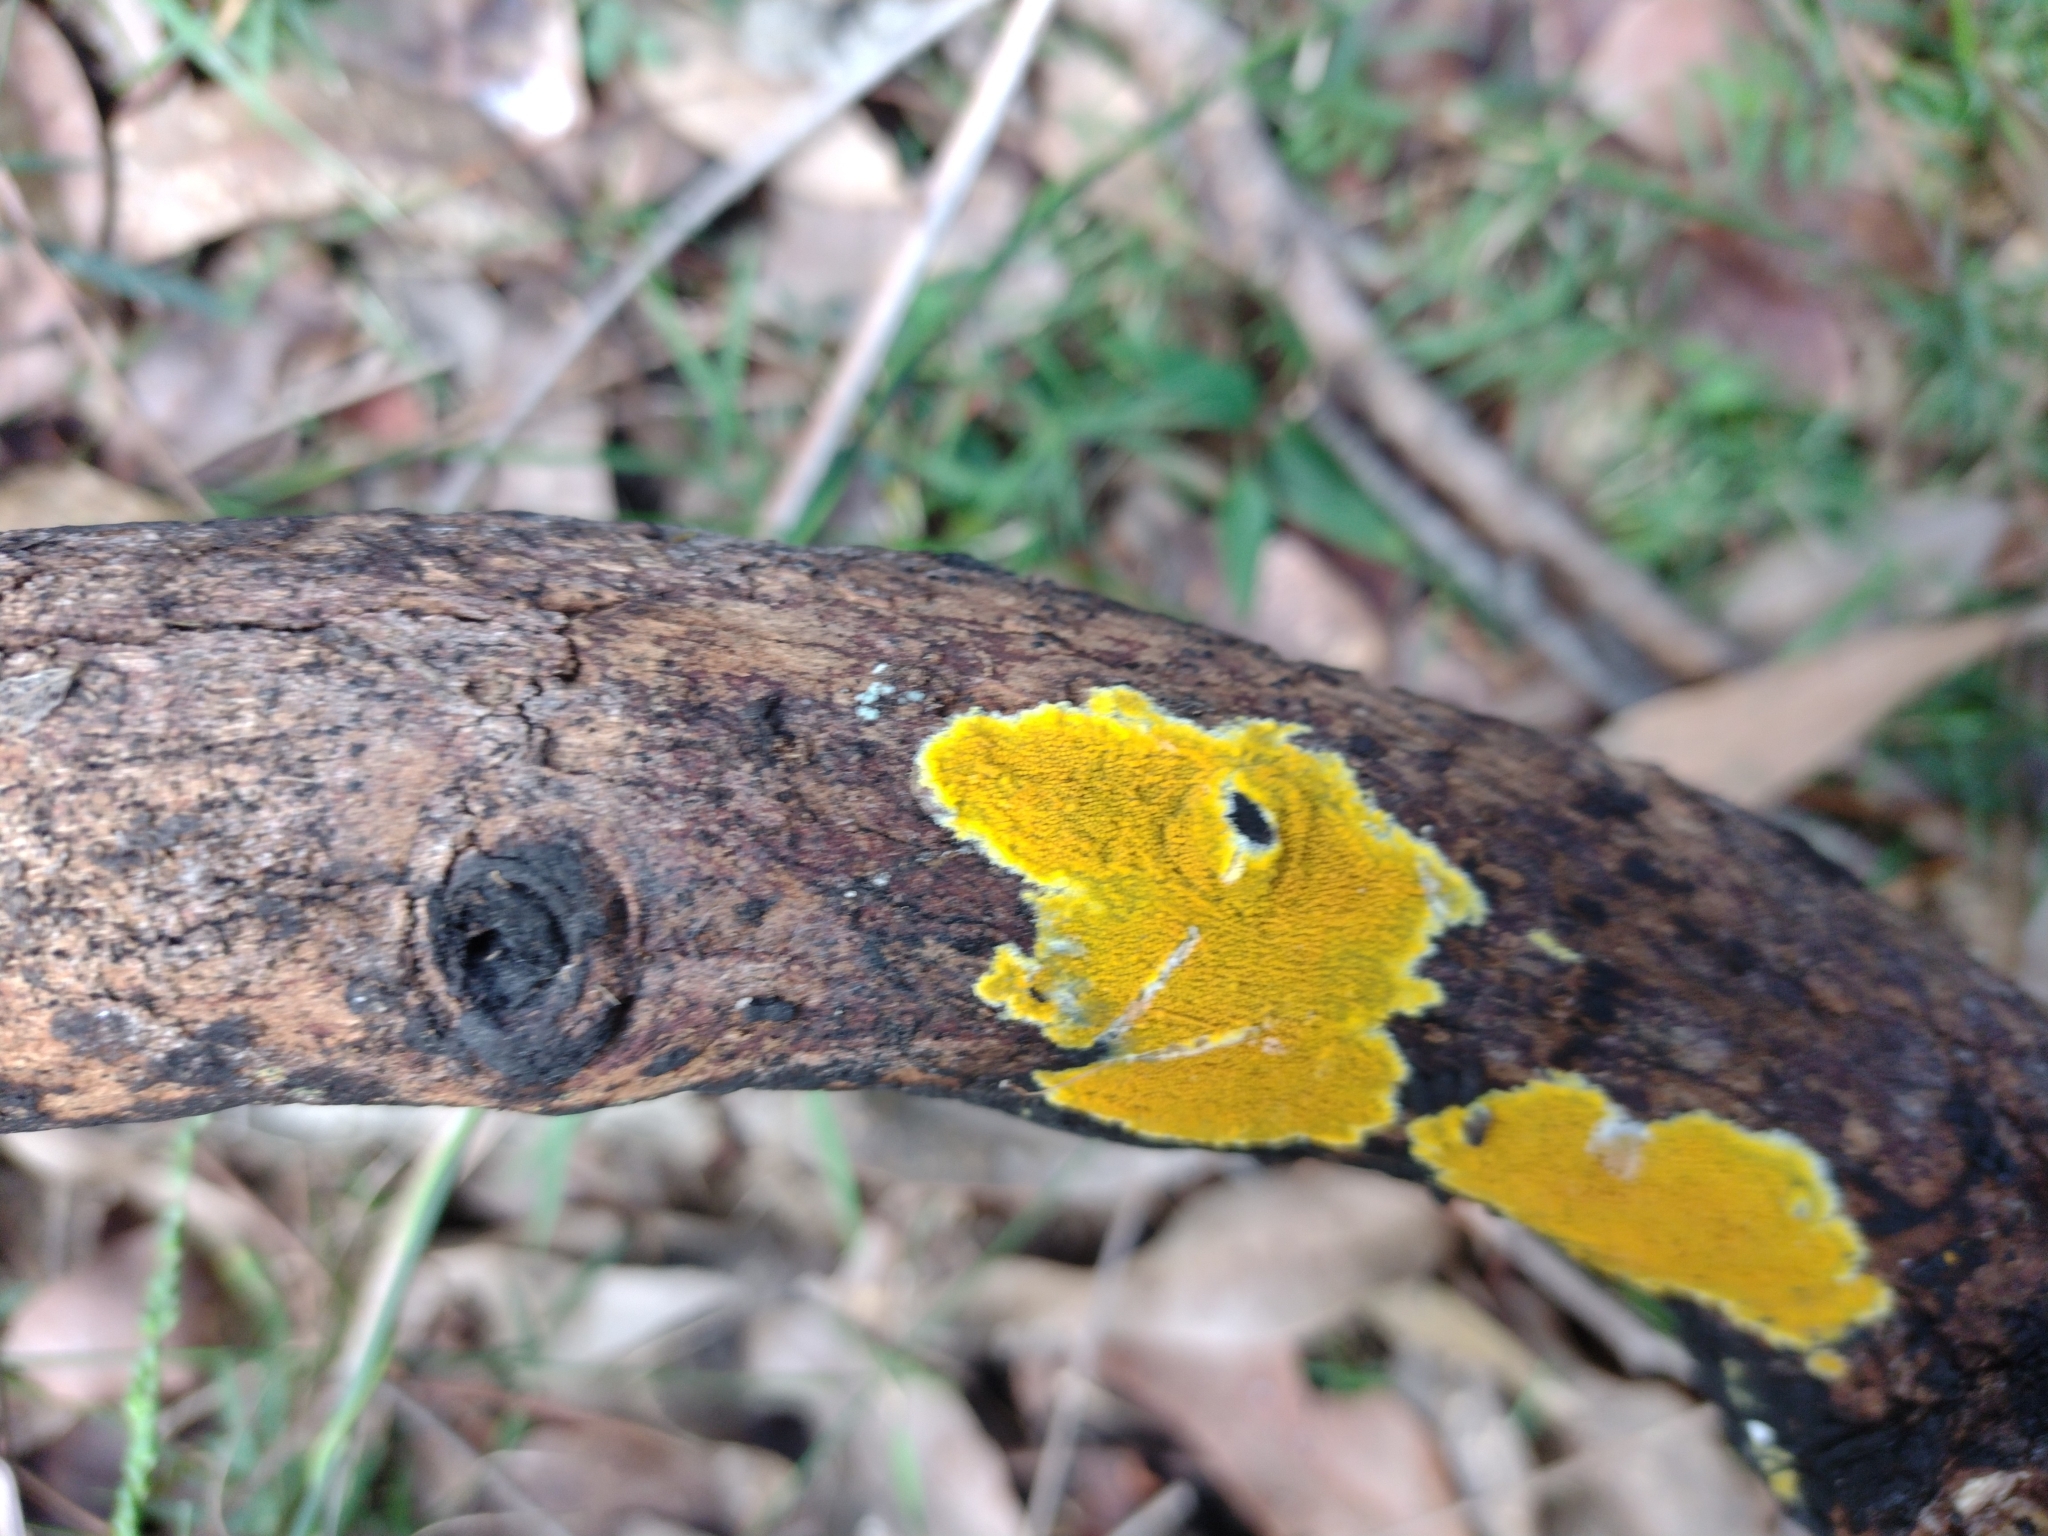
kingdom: Fungi
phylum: Basidiomycota
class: Agaricomycetes
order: Polyporales
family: Meruliaceae
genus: Phlebia
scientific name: Phlebia subceracea
